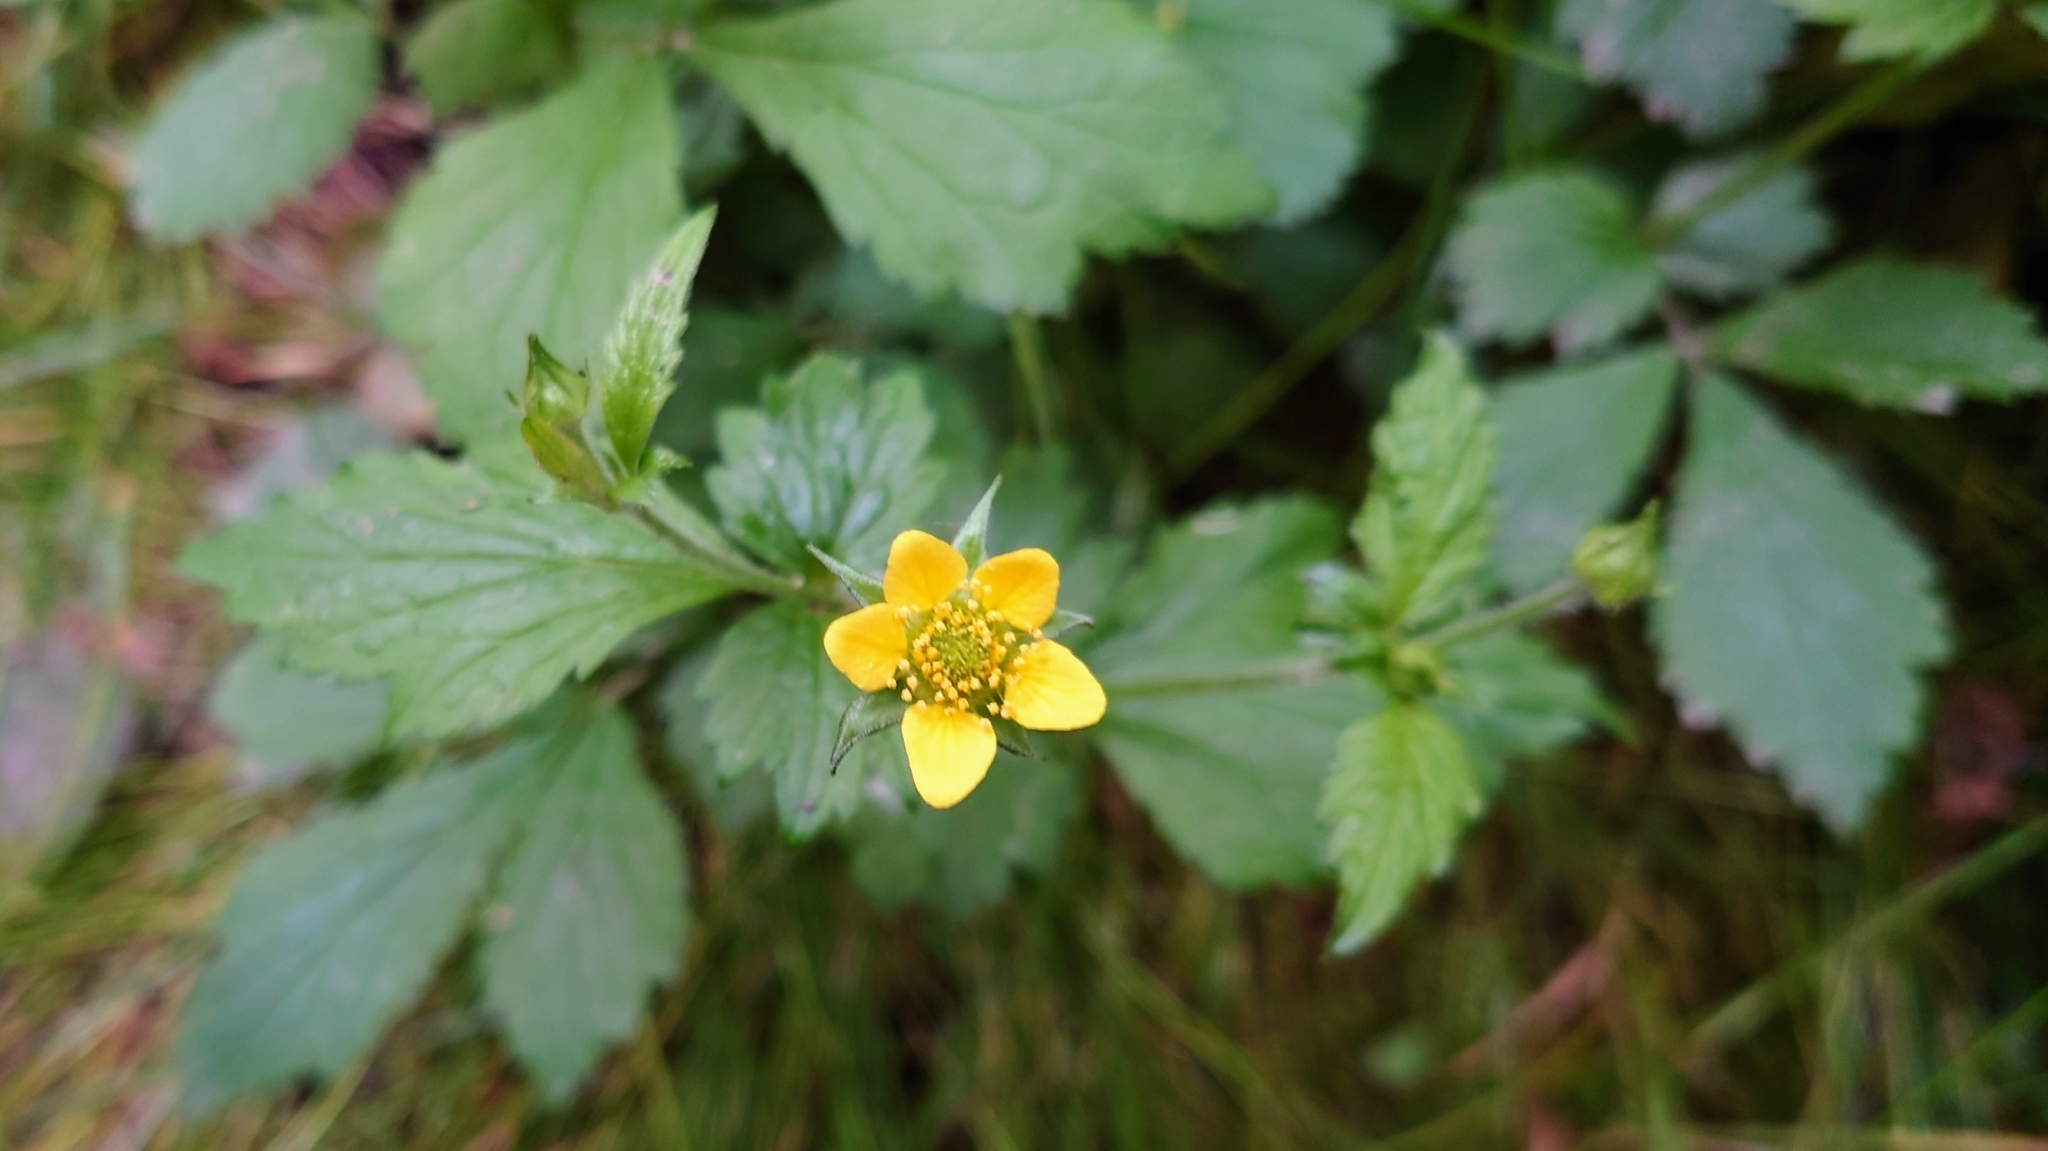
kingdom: Plantae
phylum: Tracheophyta
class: Magnoliopsida
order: Rosales
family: Rosaceae
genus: Geum
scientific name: Geum urbanum
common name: Wood avens
